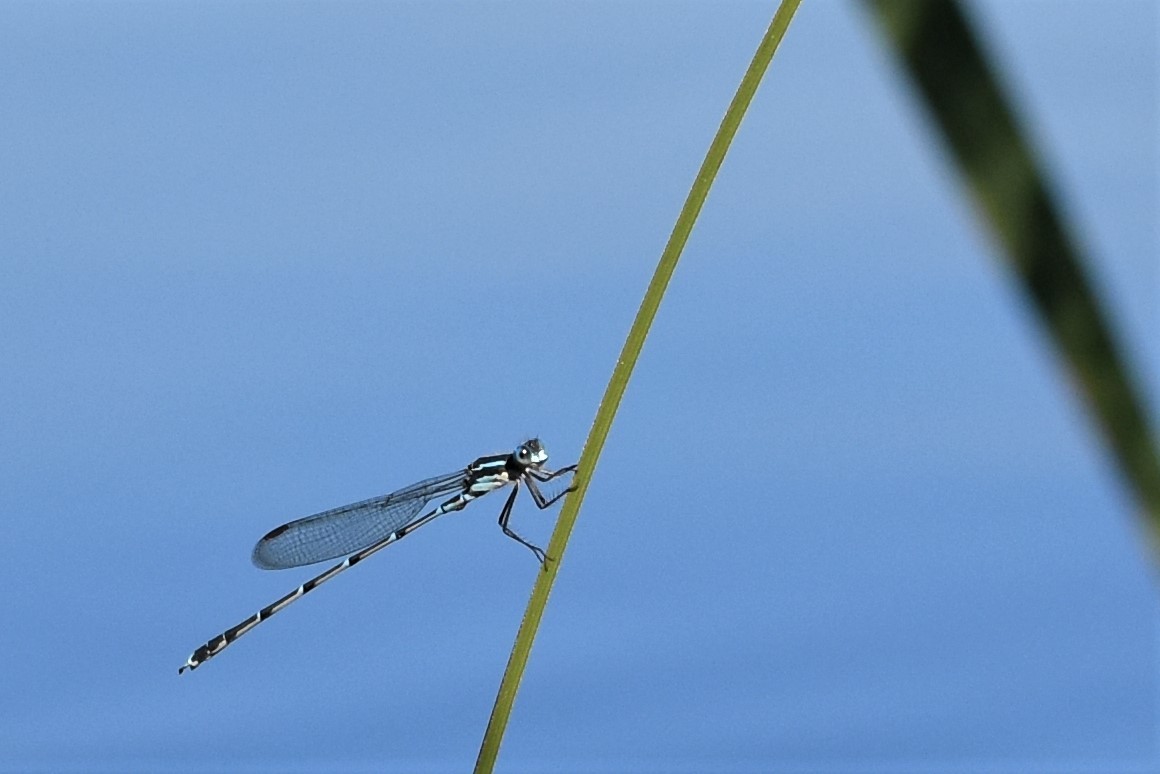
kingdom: Animalia
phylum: Arthropoda
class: Insecta
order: Odonata
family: Lestidae
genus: Austrolestes
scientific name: Austrolestes colensonis
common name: Blue damselfly
